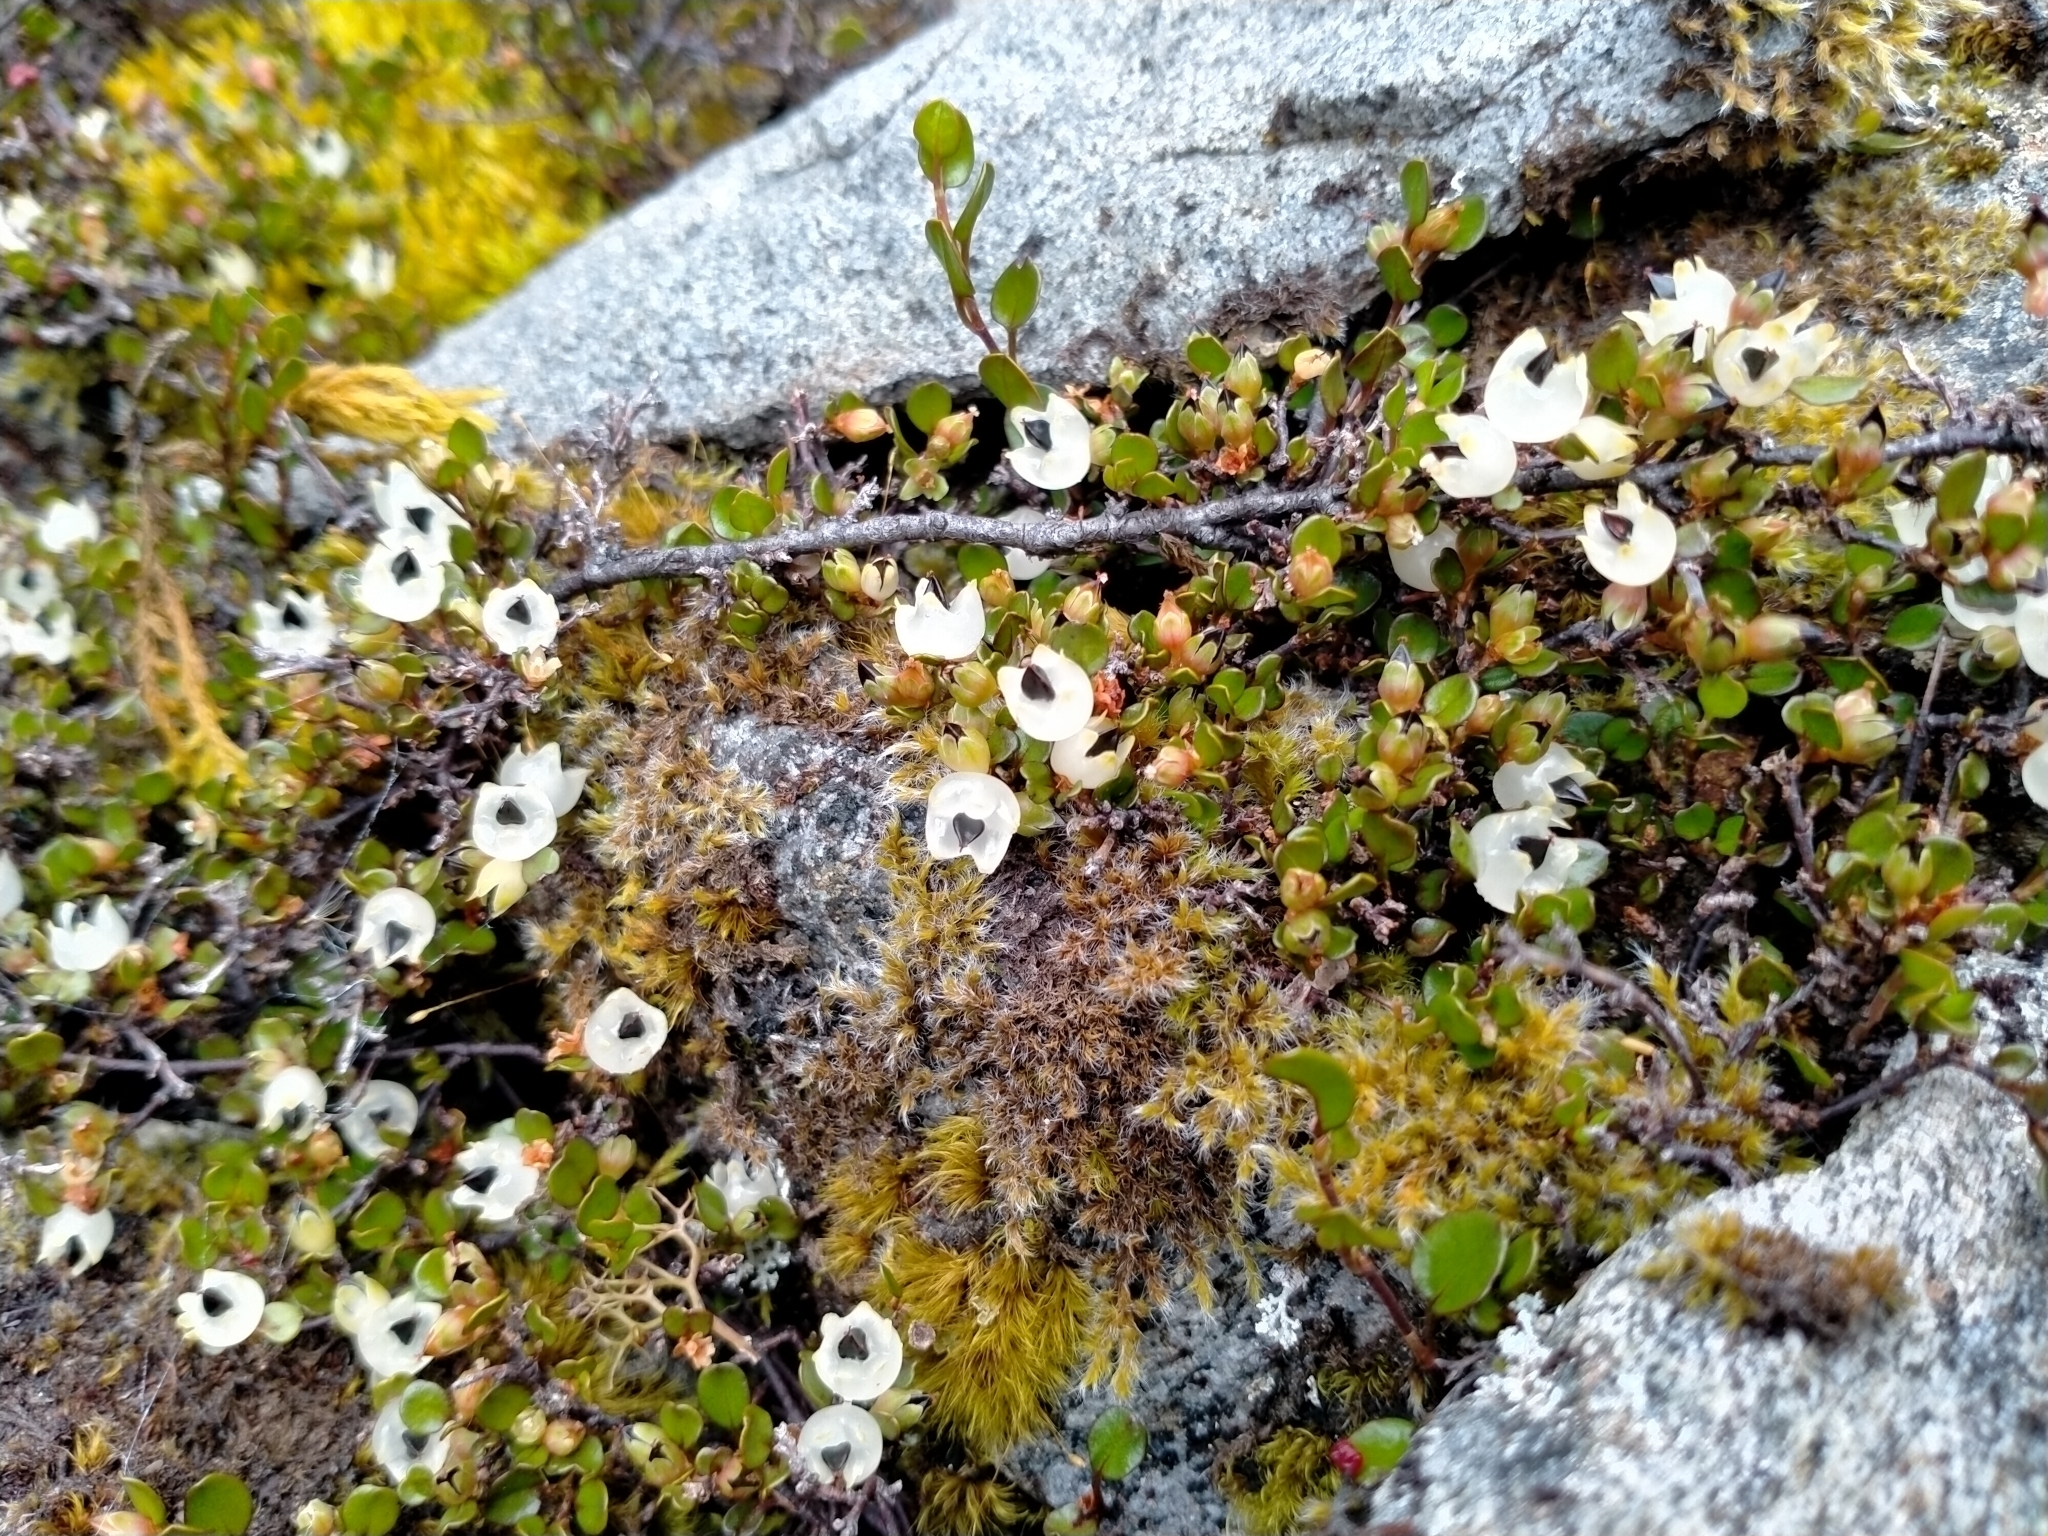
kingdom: Plantae
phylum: Tracheophyta
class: Magnoliopsida
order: Caryophyllales
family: Polygonaceae
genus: Muehlenbeckia
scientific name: Muehlenbeckia axillaris
